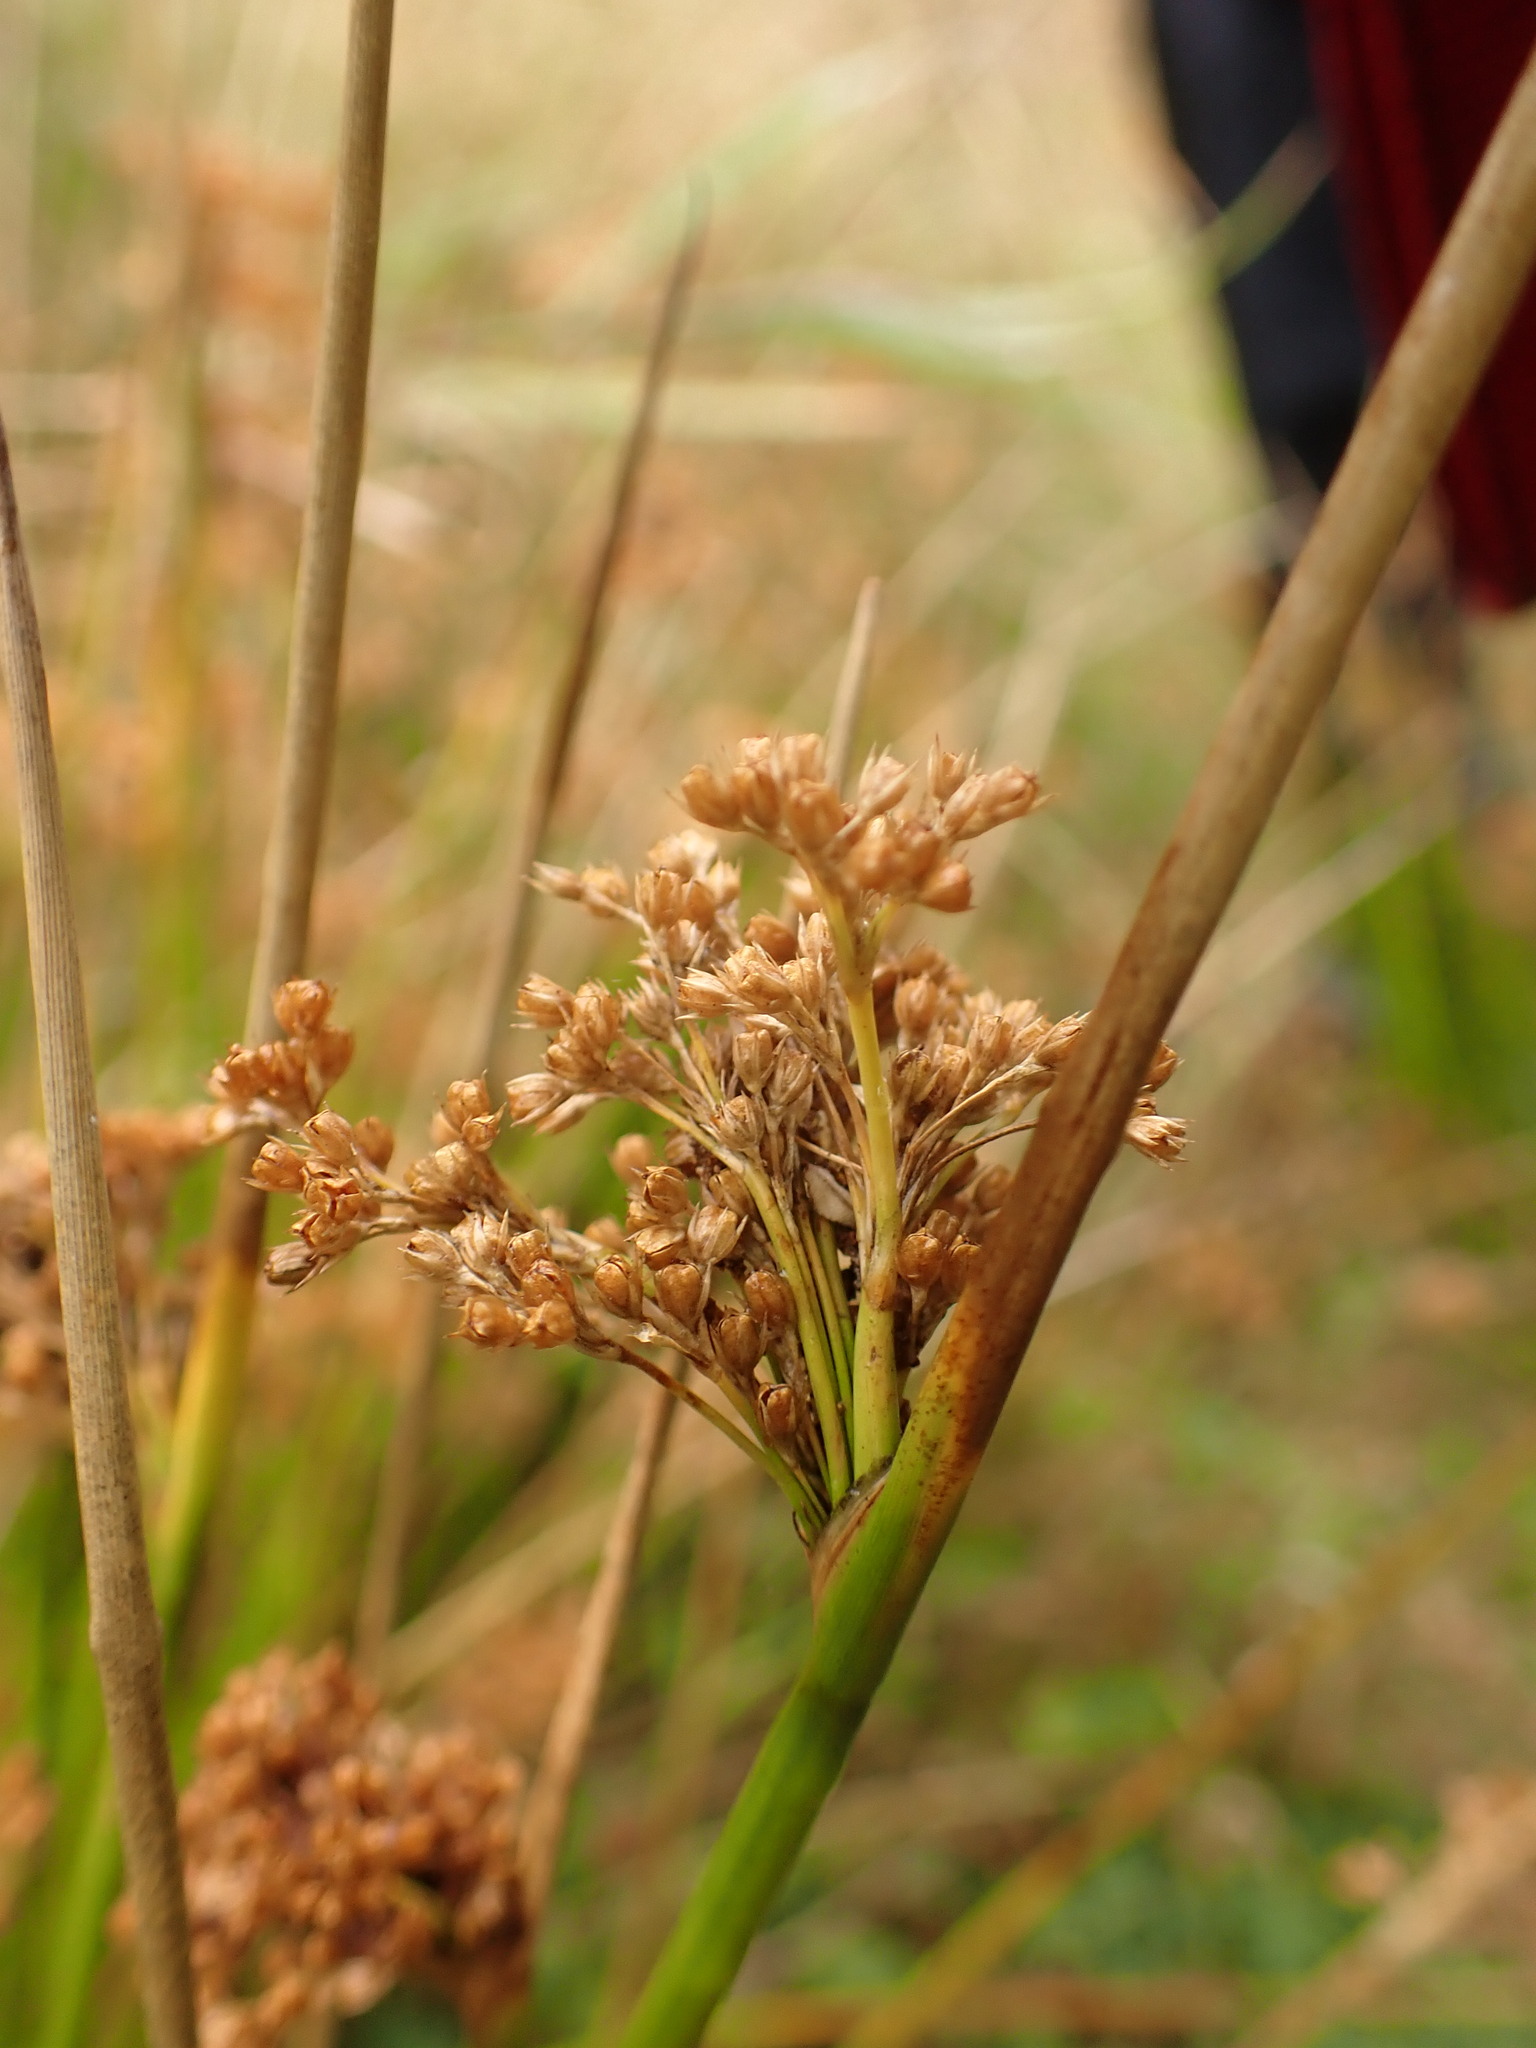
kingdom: Plantae
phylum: Tracheophyta
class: Liliopsida
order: Poales
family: Juncaceae
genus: Juncus
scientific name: Juncus effusus
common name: Soft rush
